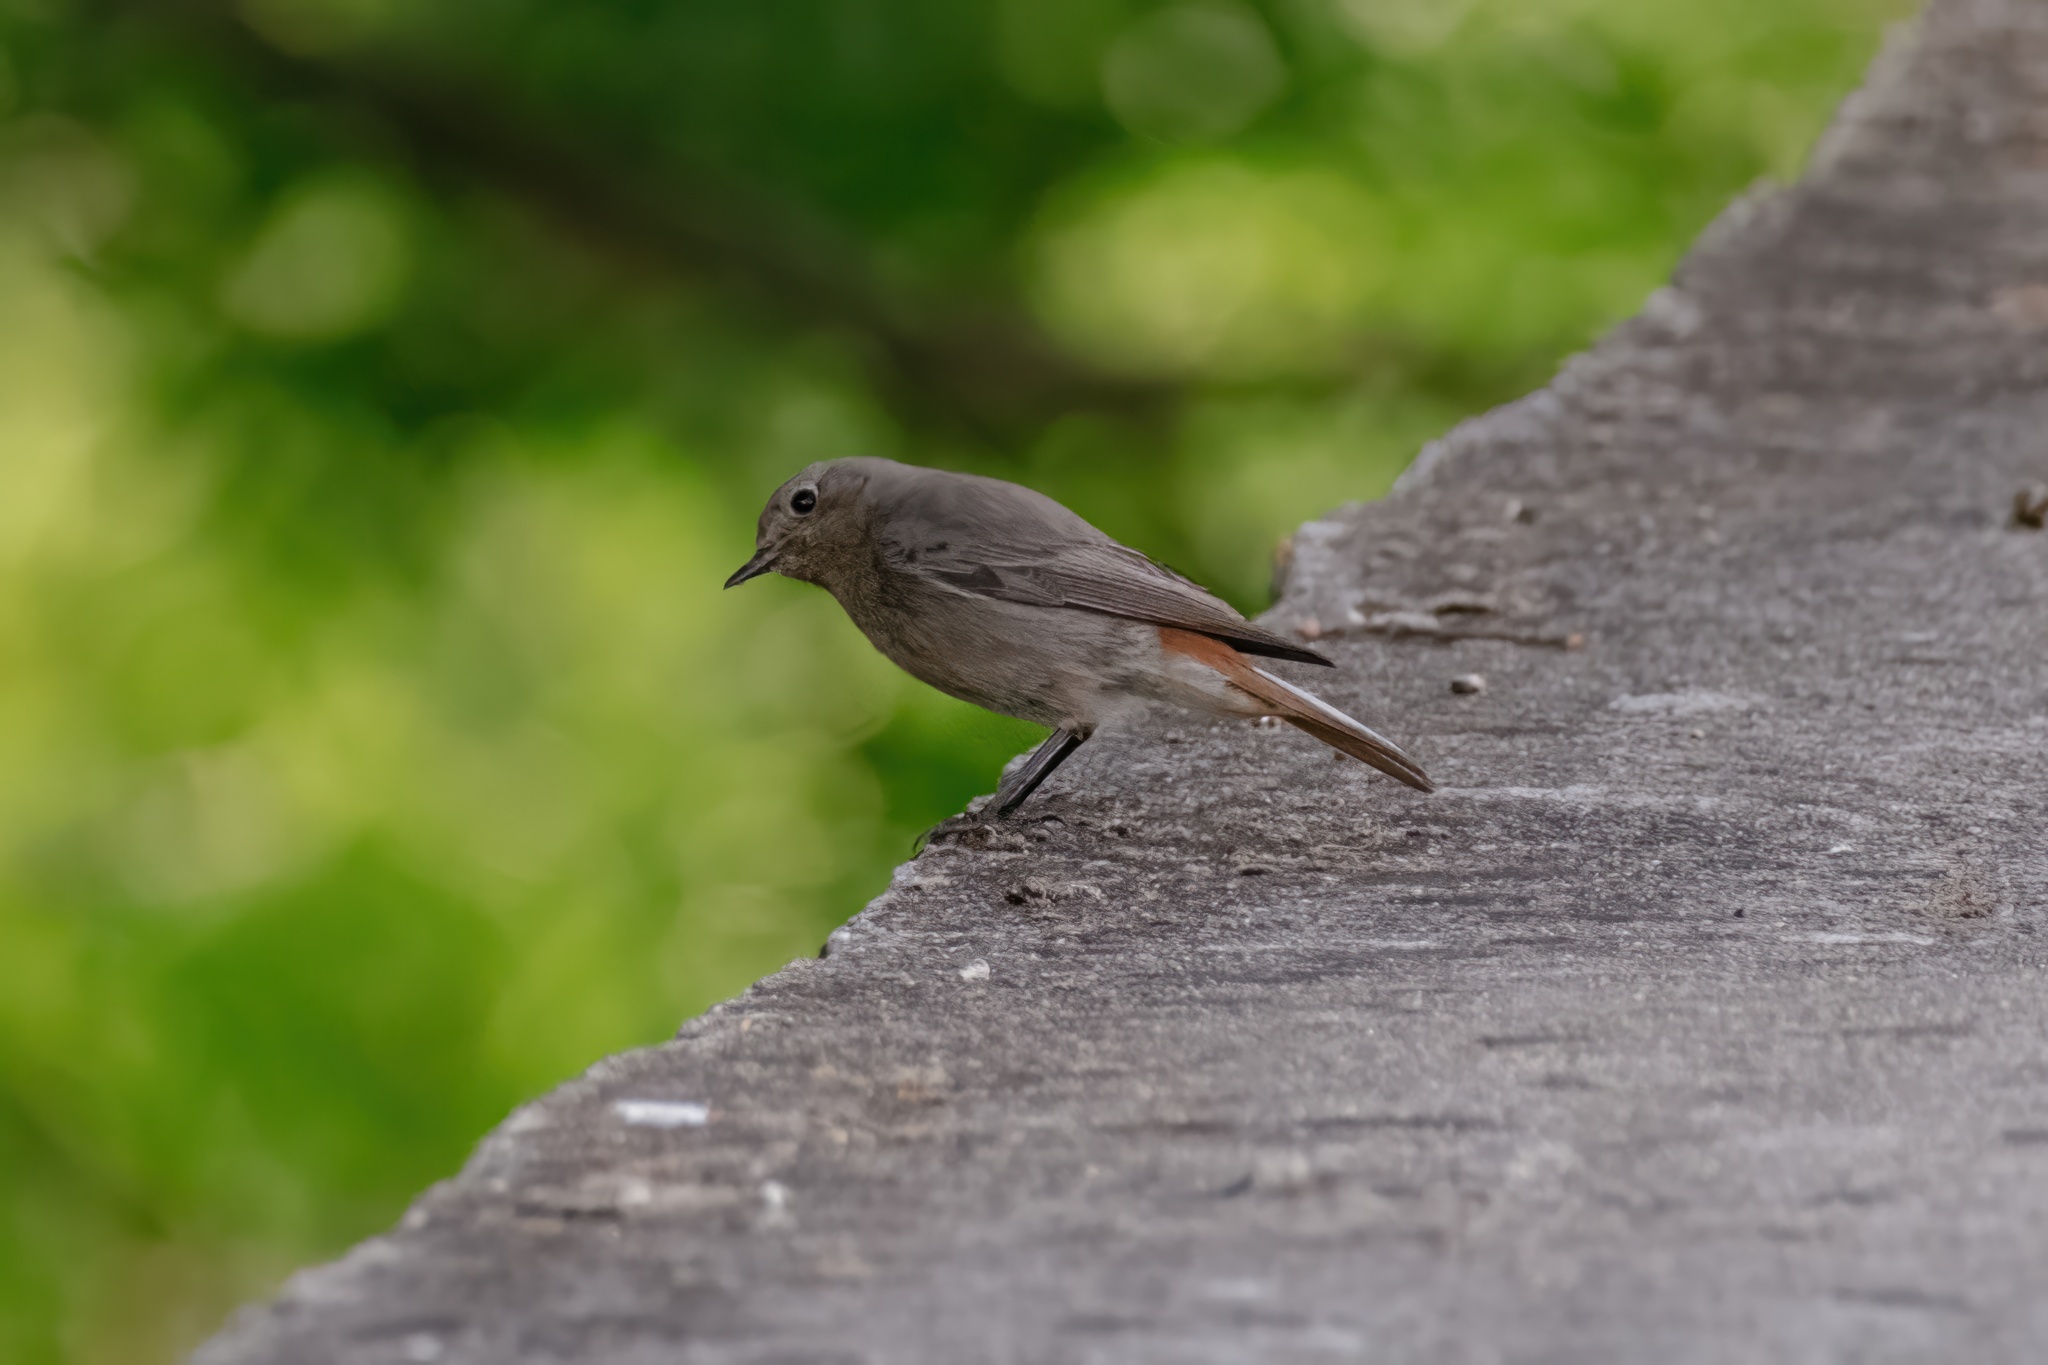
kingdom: Animalia
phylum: Chordata
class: Aves
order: Passeriformes
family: Muscicapidae
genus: Phoenicurus
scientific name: Phoenicurus ochruros
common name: Black redstart
